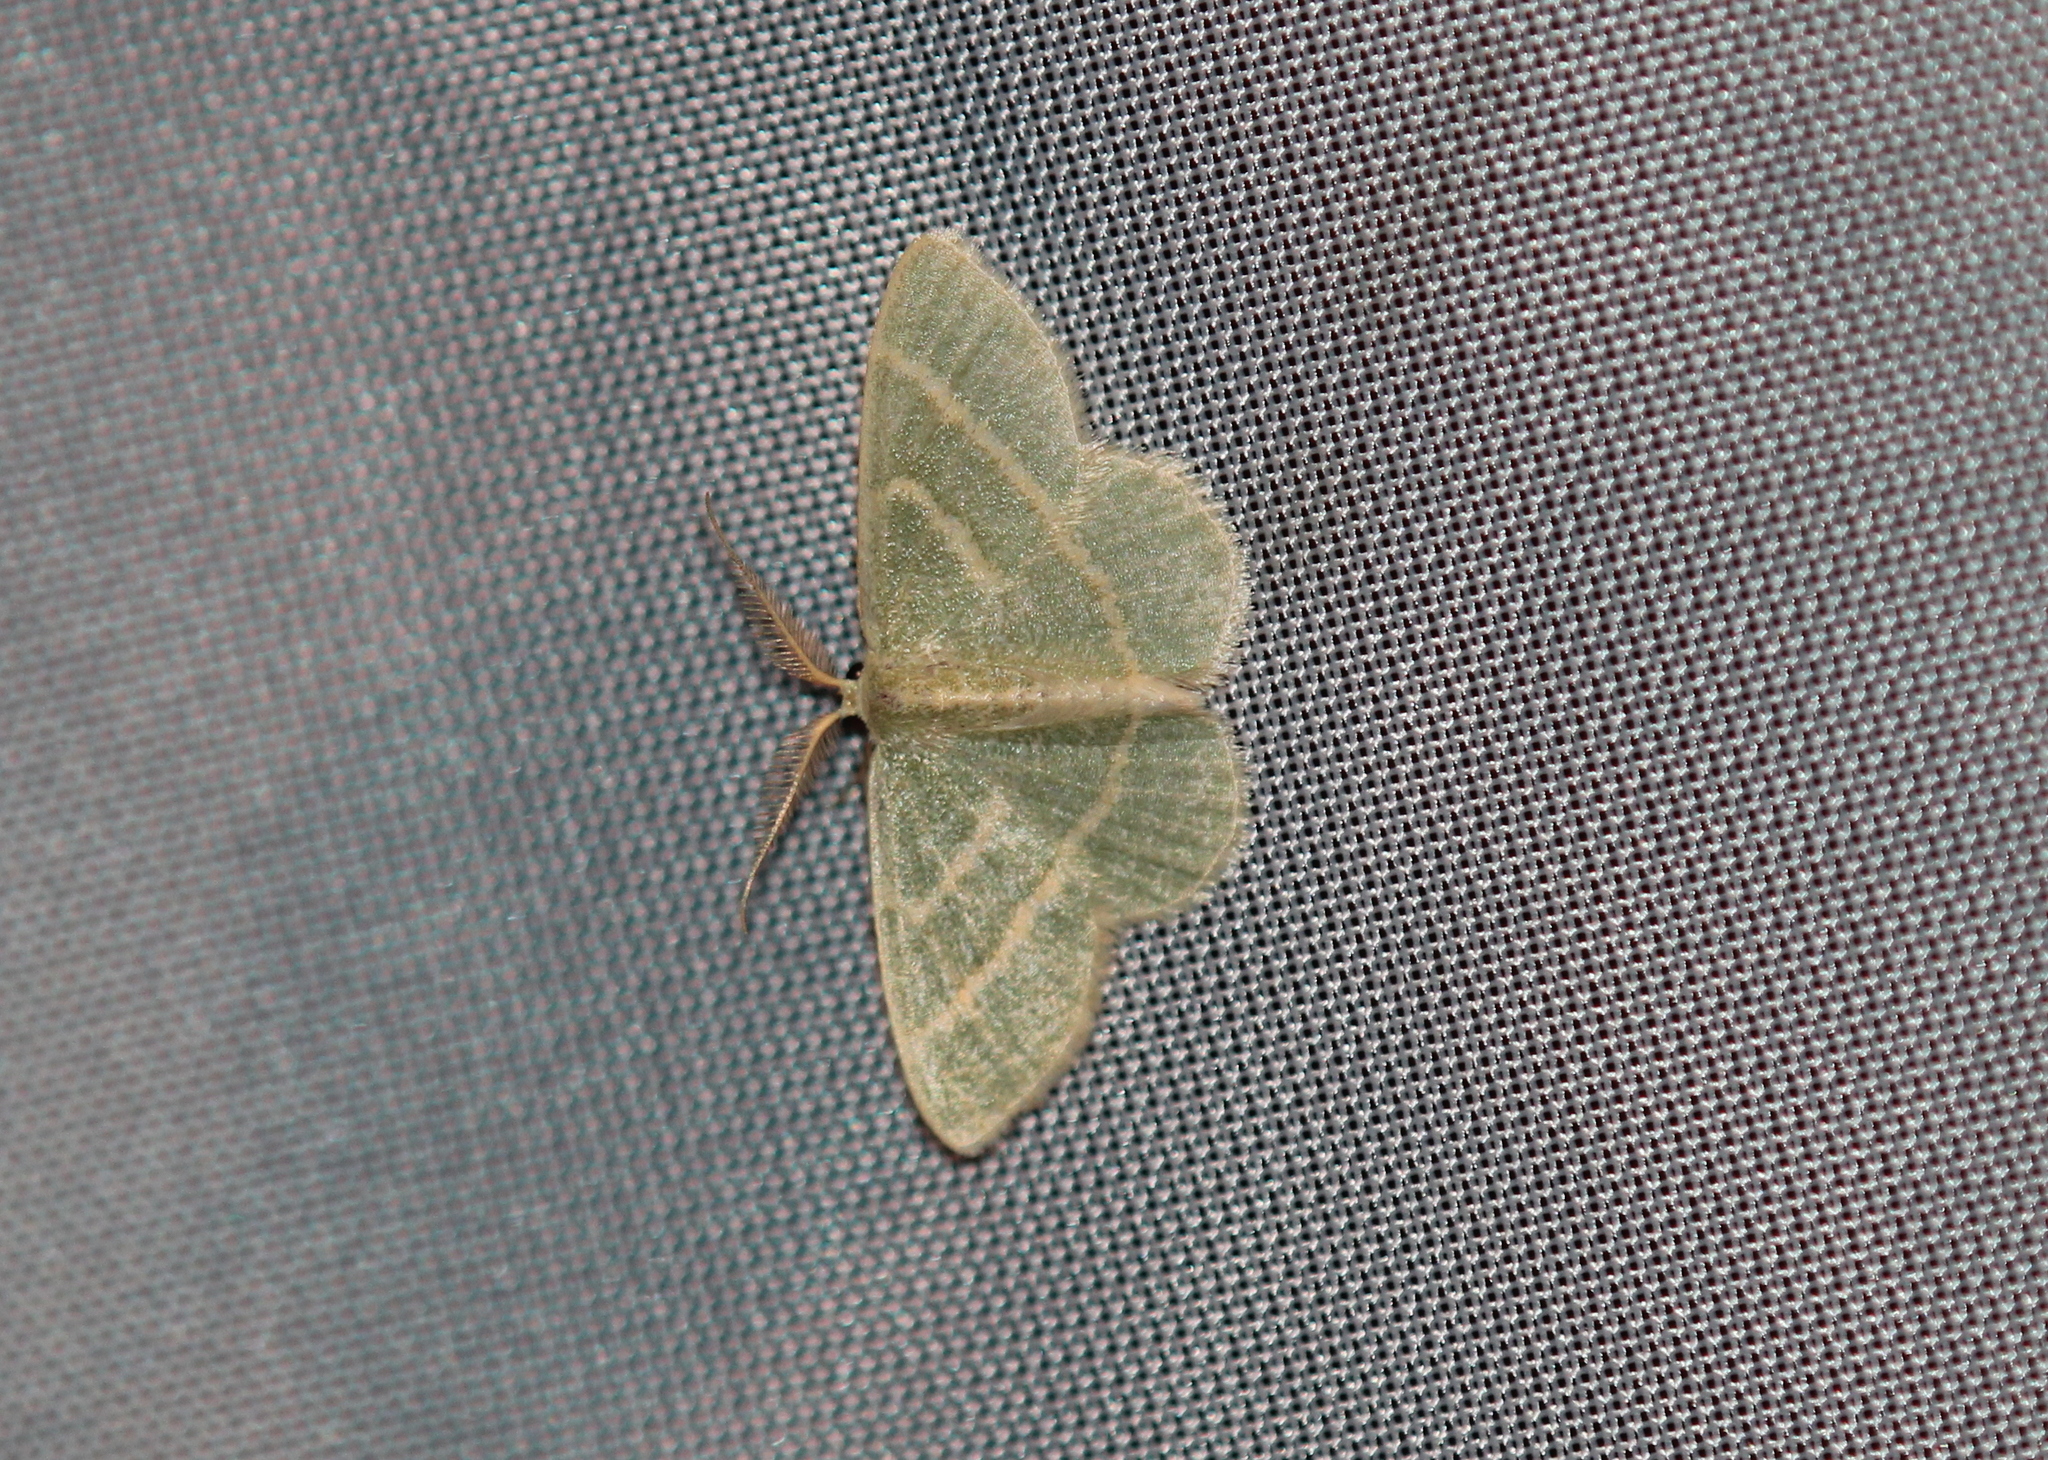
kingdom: Animalia
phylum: Arthropoda
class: Insecta
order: Lepidoptera
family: Geometridae
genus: Chlorochlamys
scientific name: Chlorochlamys chloroleucaria
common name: Blackberry looper
